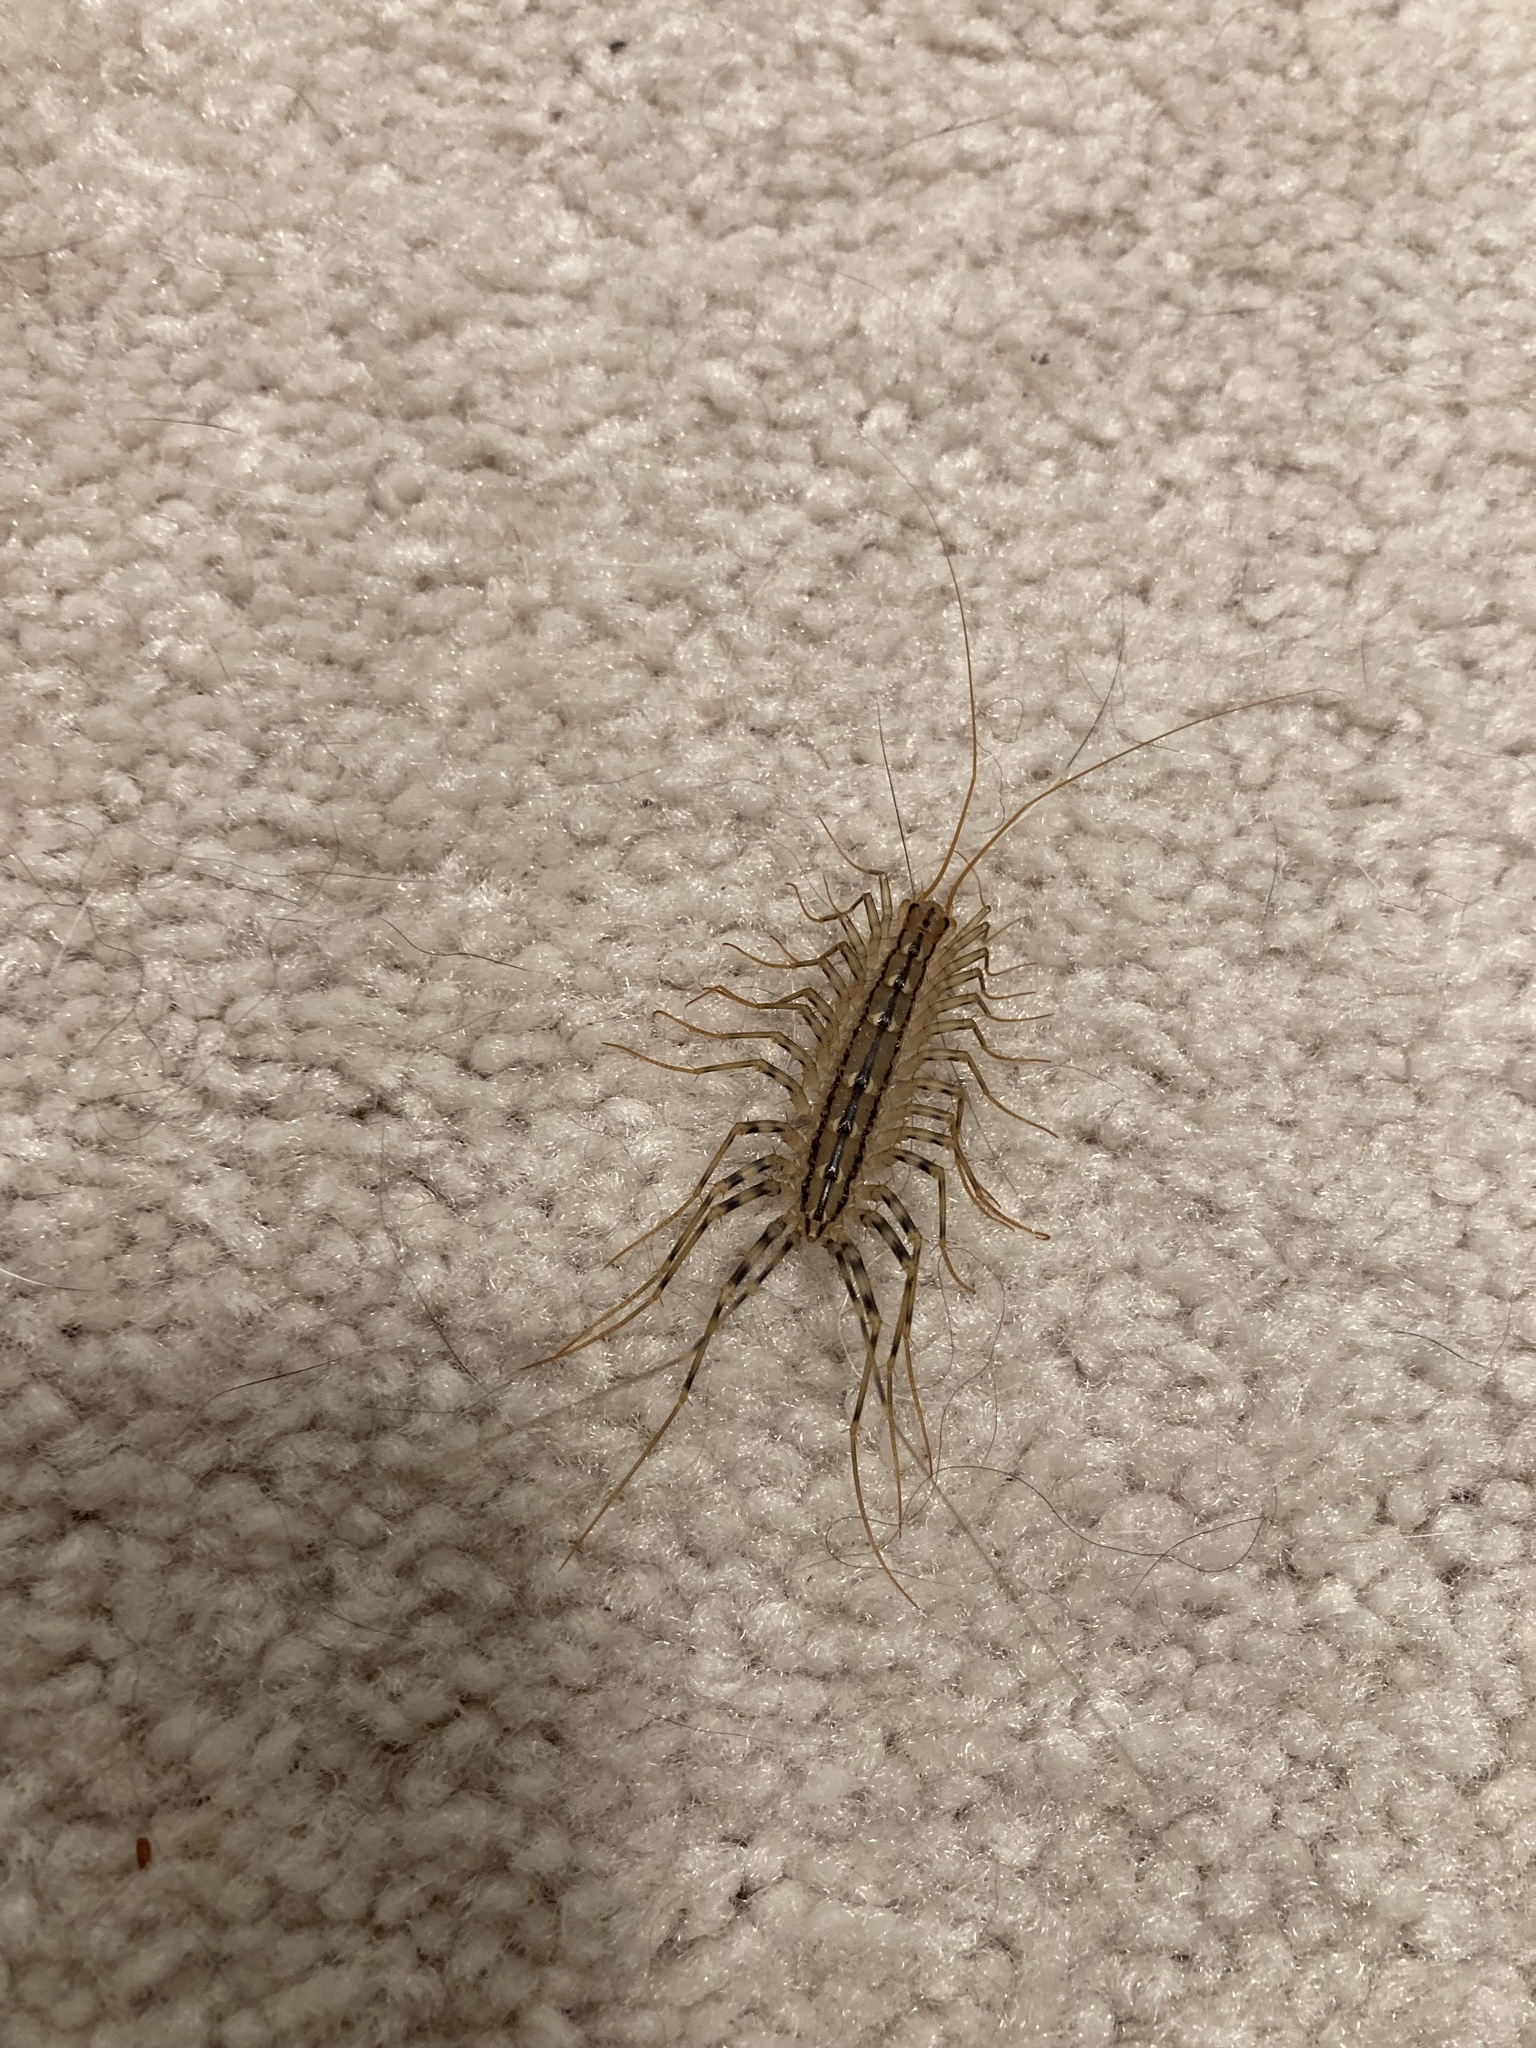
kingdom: Animalia
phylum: Arthropoda
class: Chilopoda
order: Scutigeromorpha
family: Scutigeridae
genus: Scutigera
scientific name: Scutigera coleoptrata
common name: House centipede
